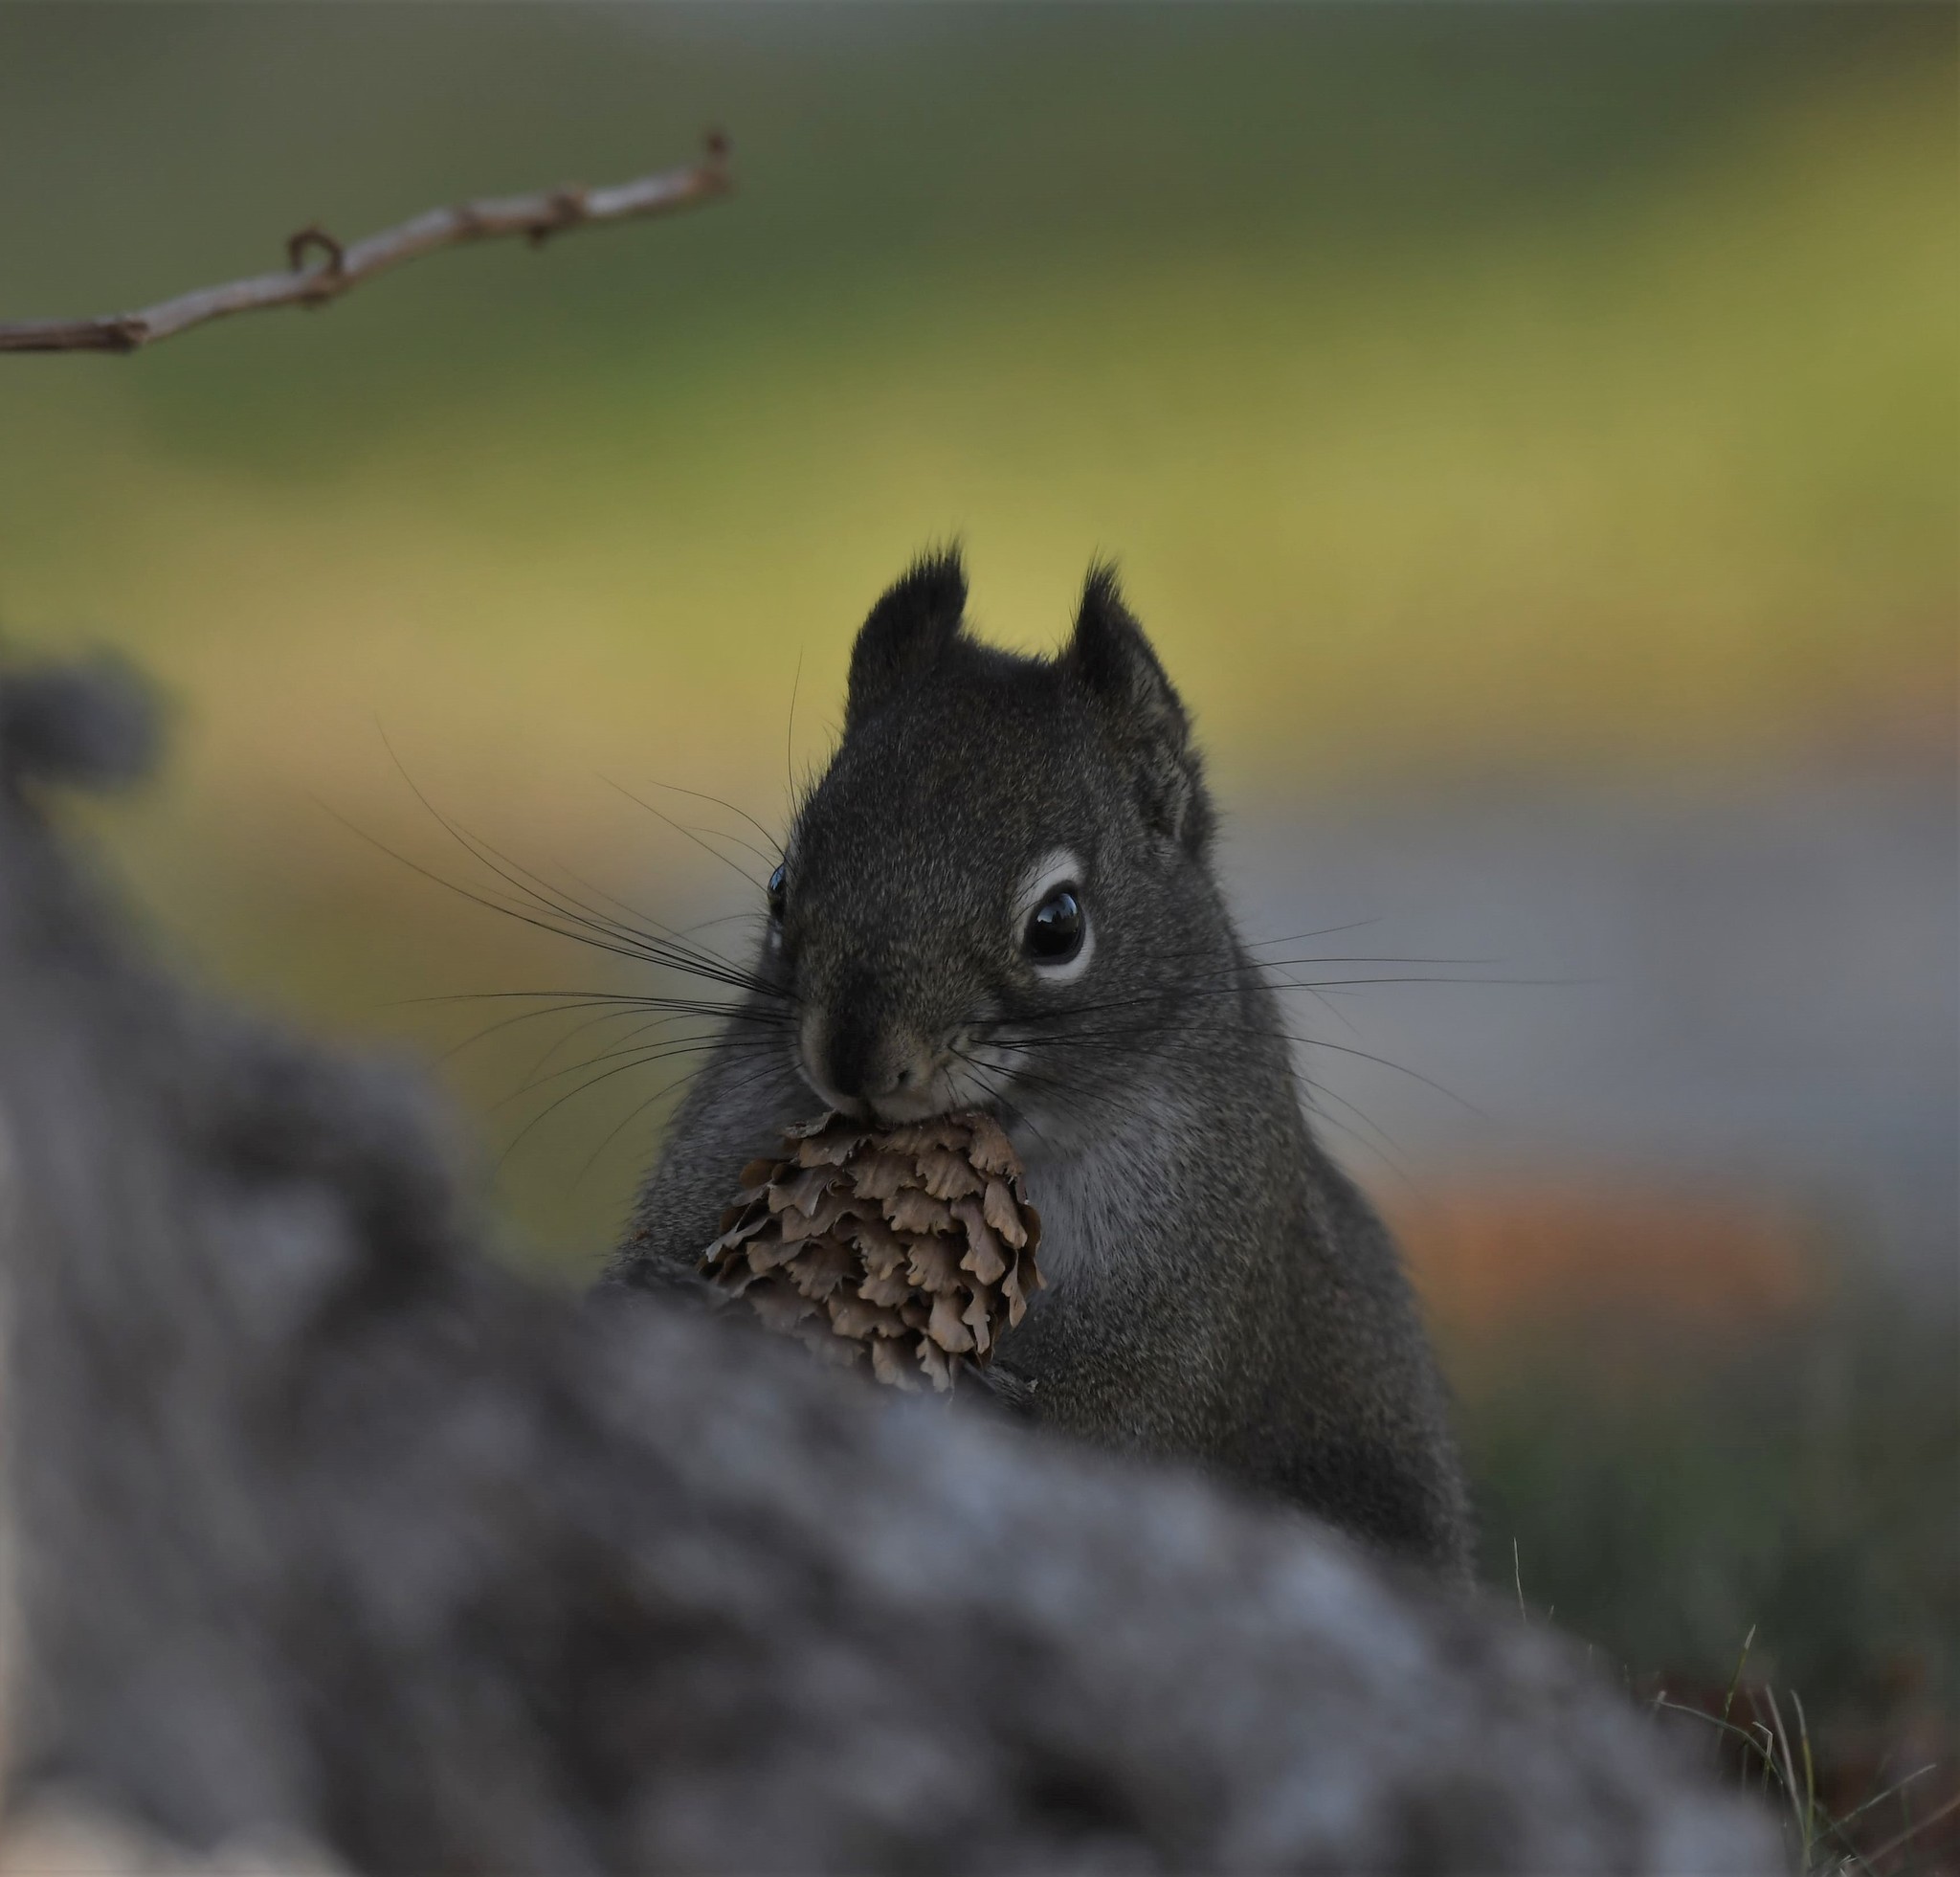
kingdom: Animalia
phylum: Chordata
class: Mammalia
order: Rodentia
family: Sciuridae
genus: Tamiasciurus
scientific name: Tamiasciurus hudsonicus
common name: Red squirrel
